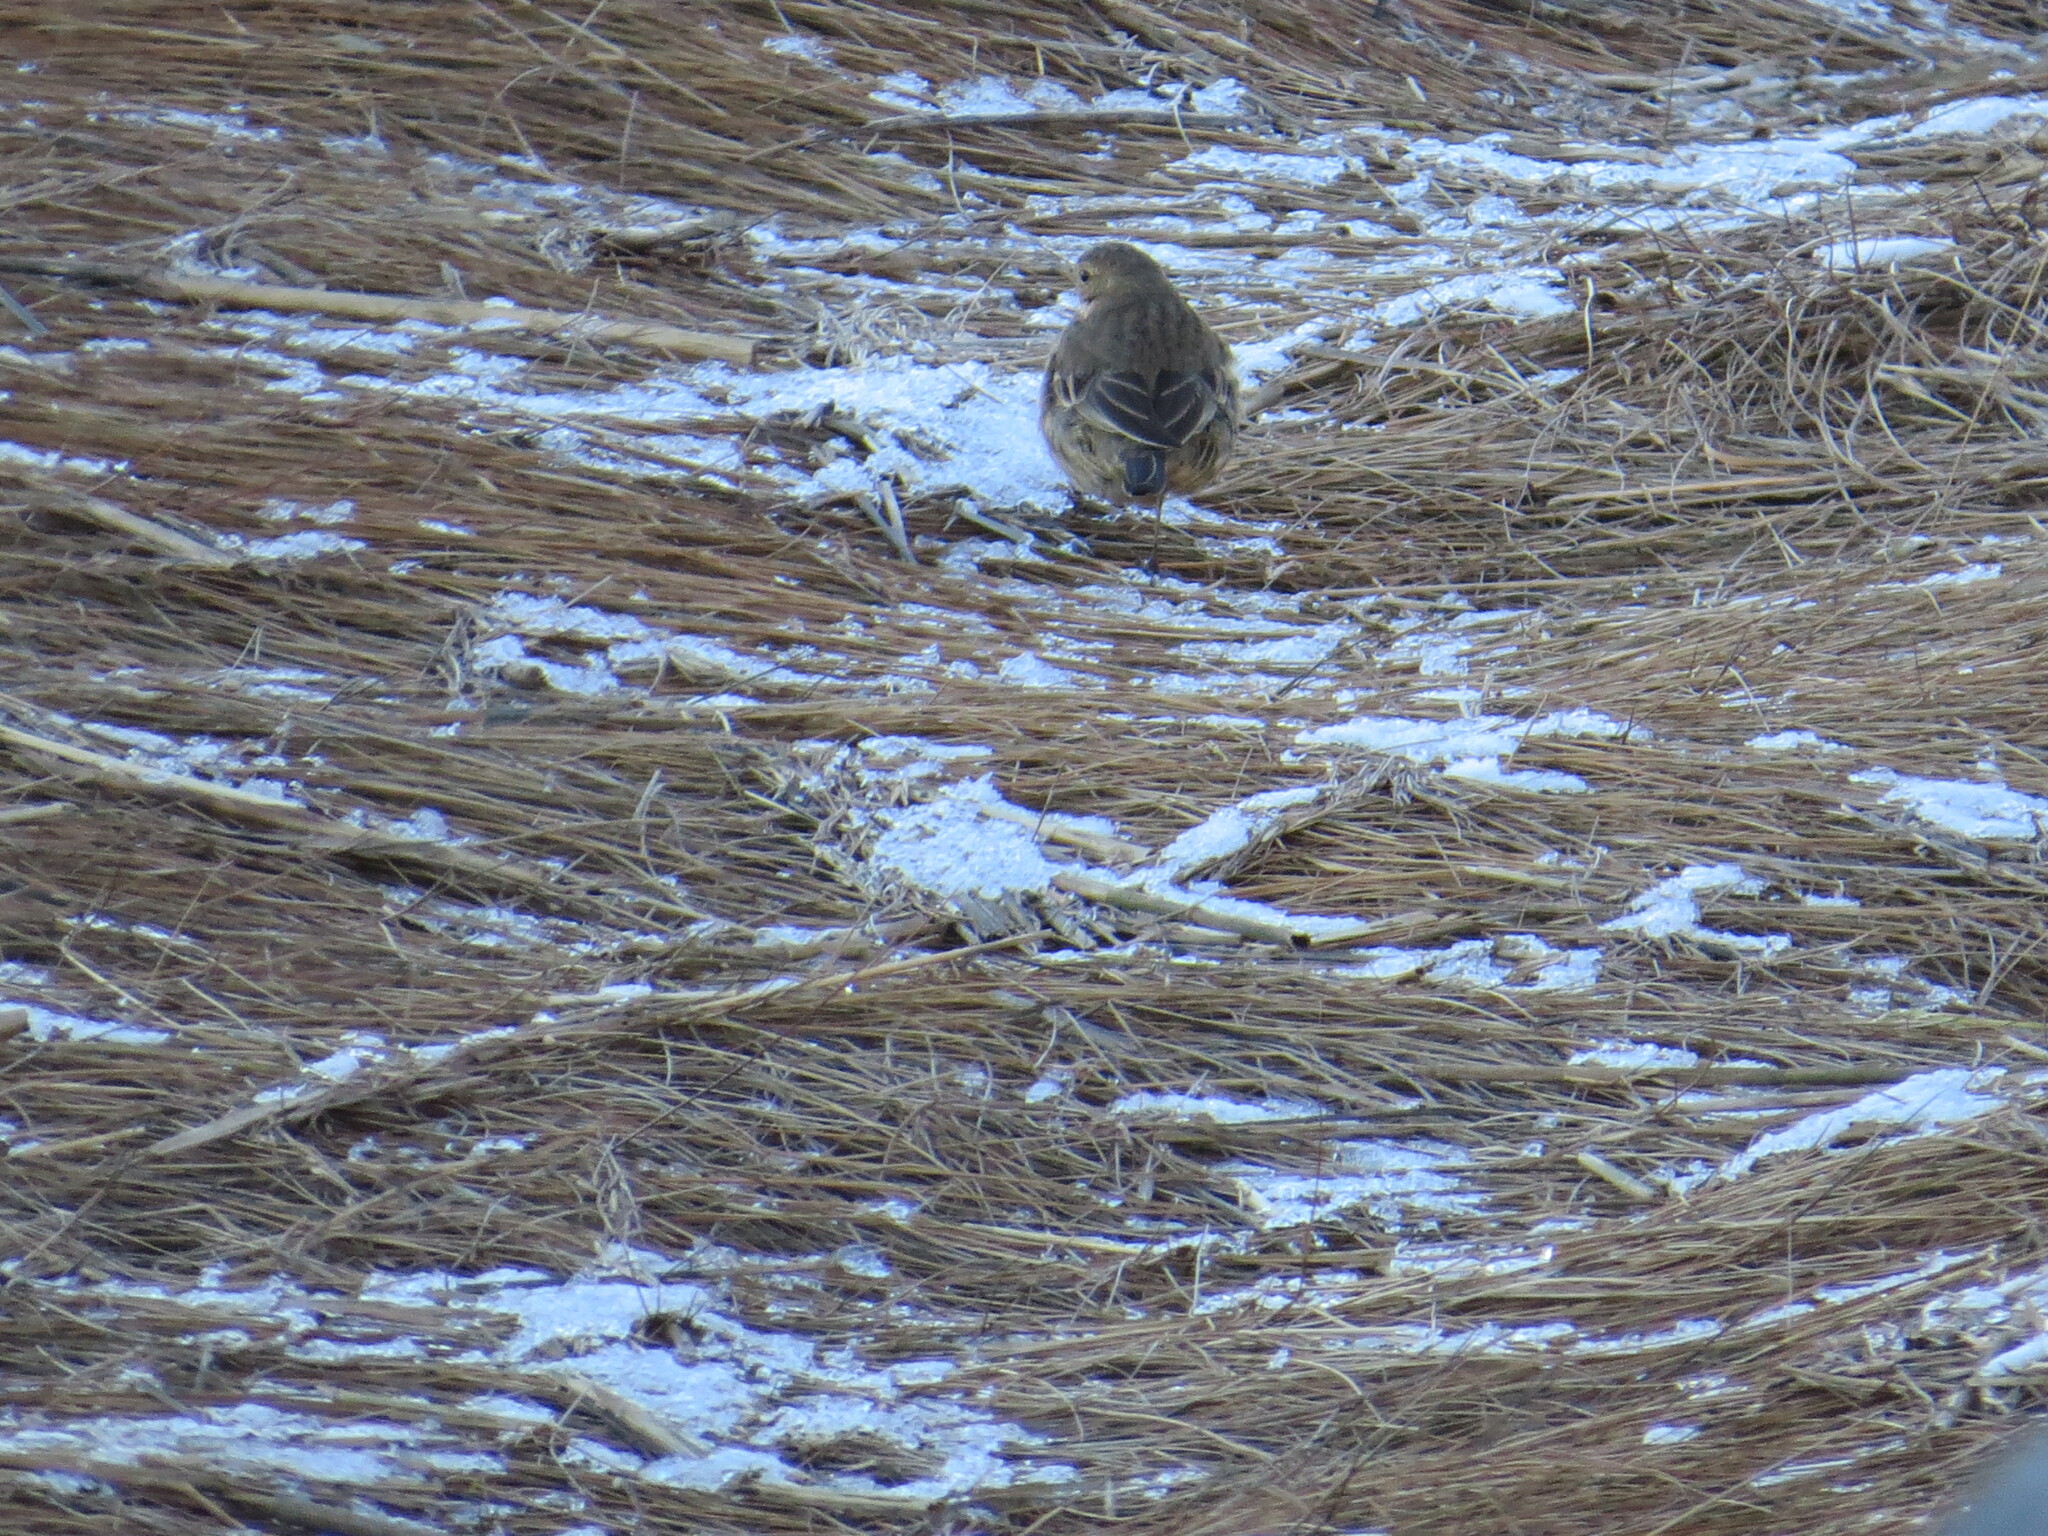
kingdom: Animalia
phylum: Chordata
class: Aves
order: Passeriformes
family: Motacillidae
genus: Anthus
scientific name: Anthus rubescens
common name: Buff-bellied pipit
